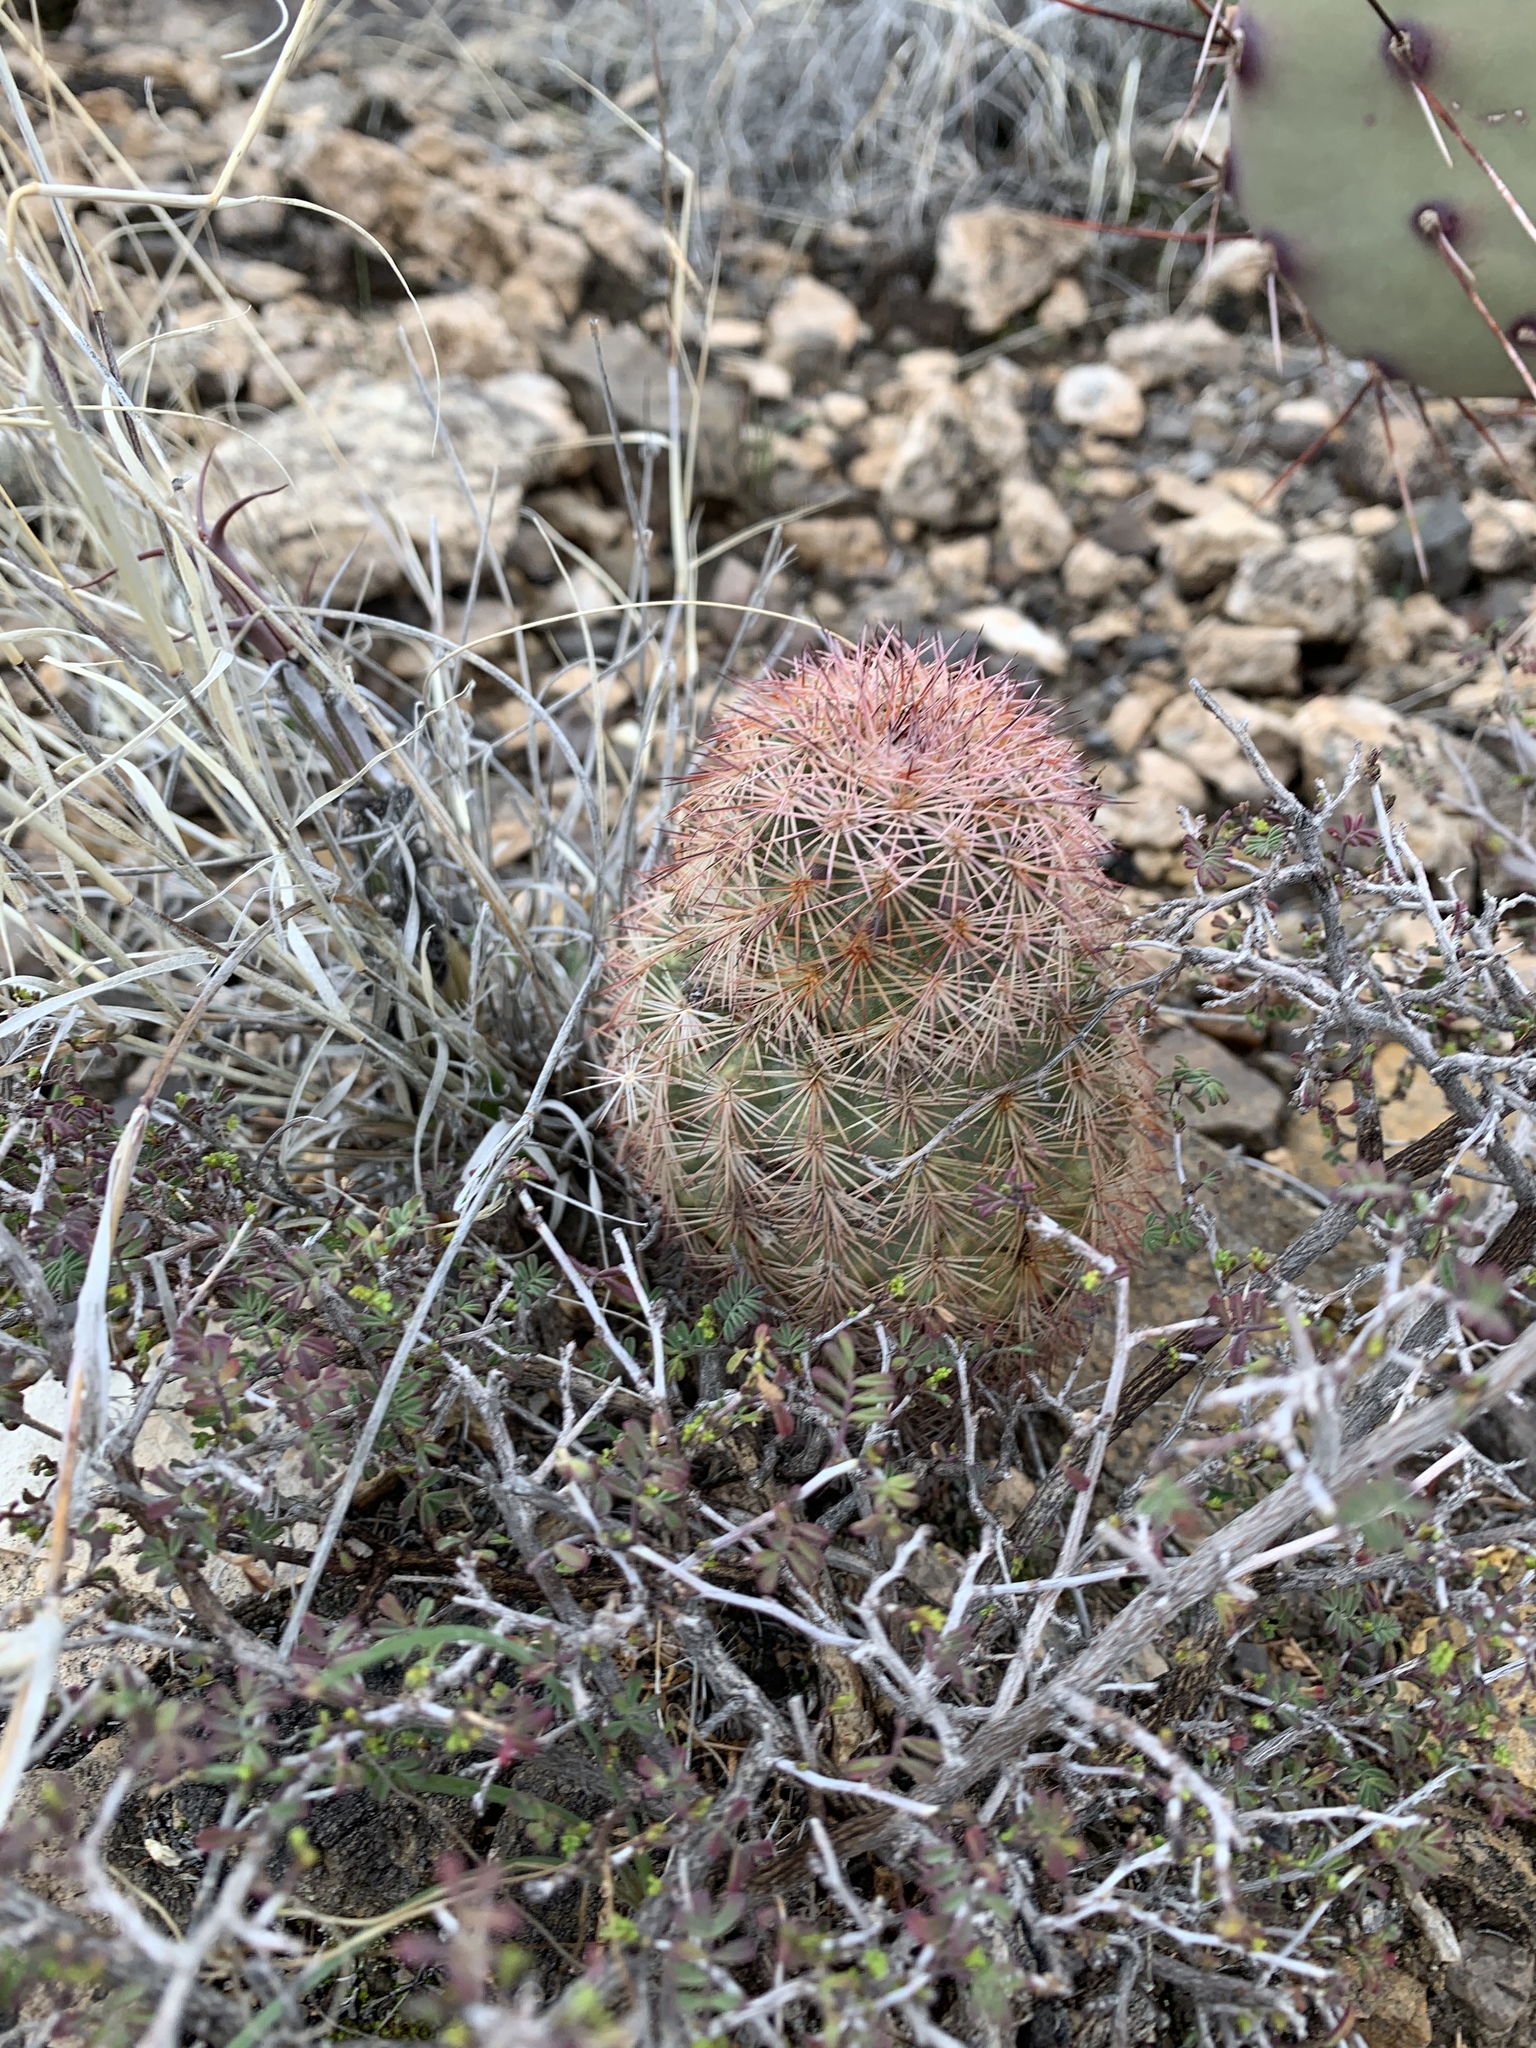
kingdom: Plantae
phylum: Tracheophyta
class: Magnoliopsida
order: Caryophyllales
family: Cactaceae
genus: Echinocereus
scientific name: Echinocereus dasyacanthus
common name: Spiny hedgehog cactus
